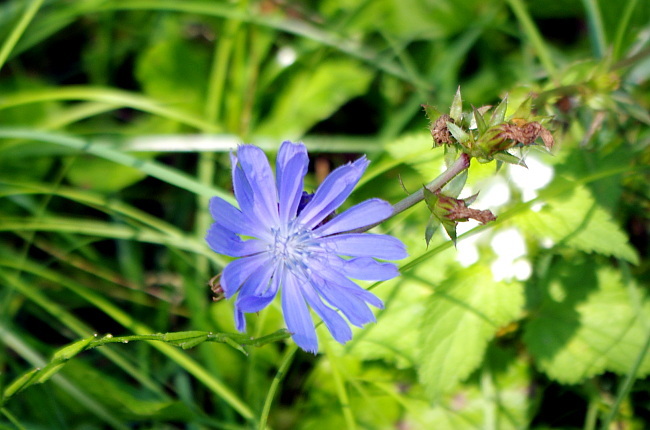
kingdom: Plantae
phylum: Tracheophyta
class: Magnoliopsida
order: Asterales
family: Asteraceae
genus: Cichorium
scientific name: Cichorium intybus
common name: Chicory
